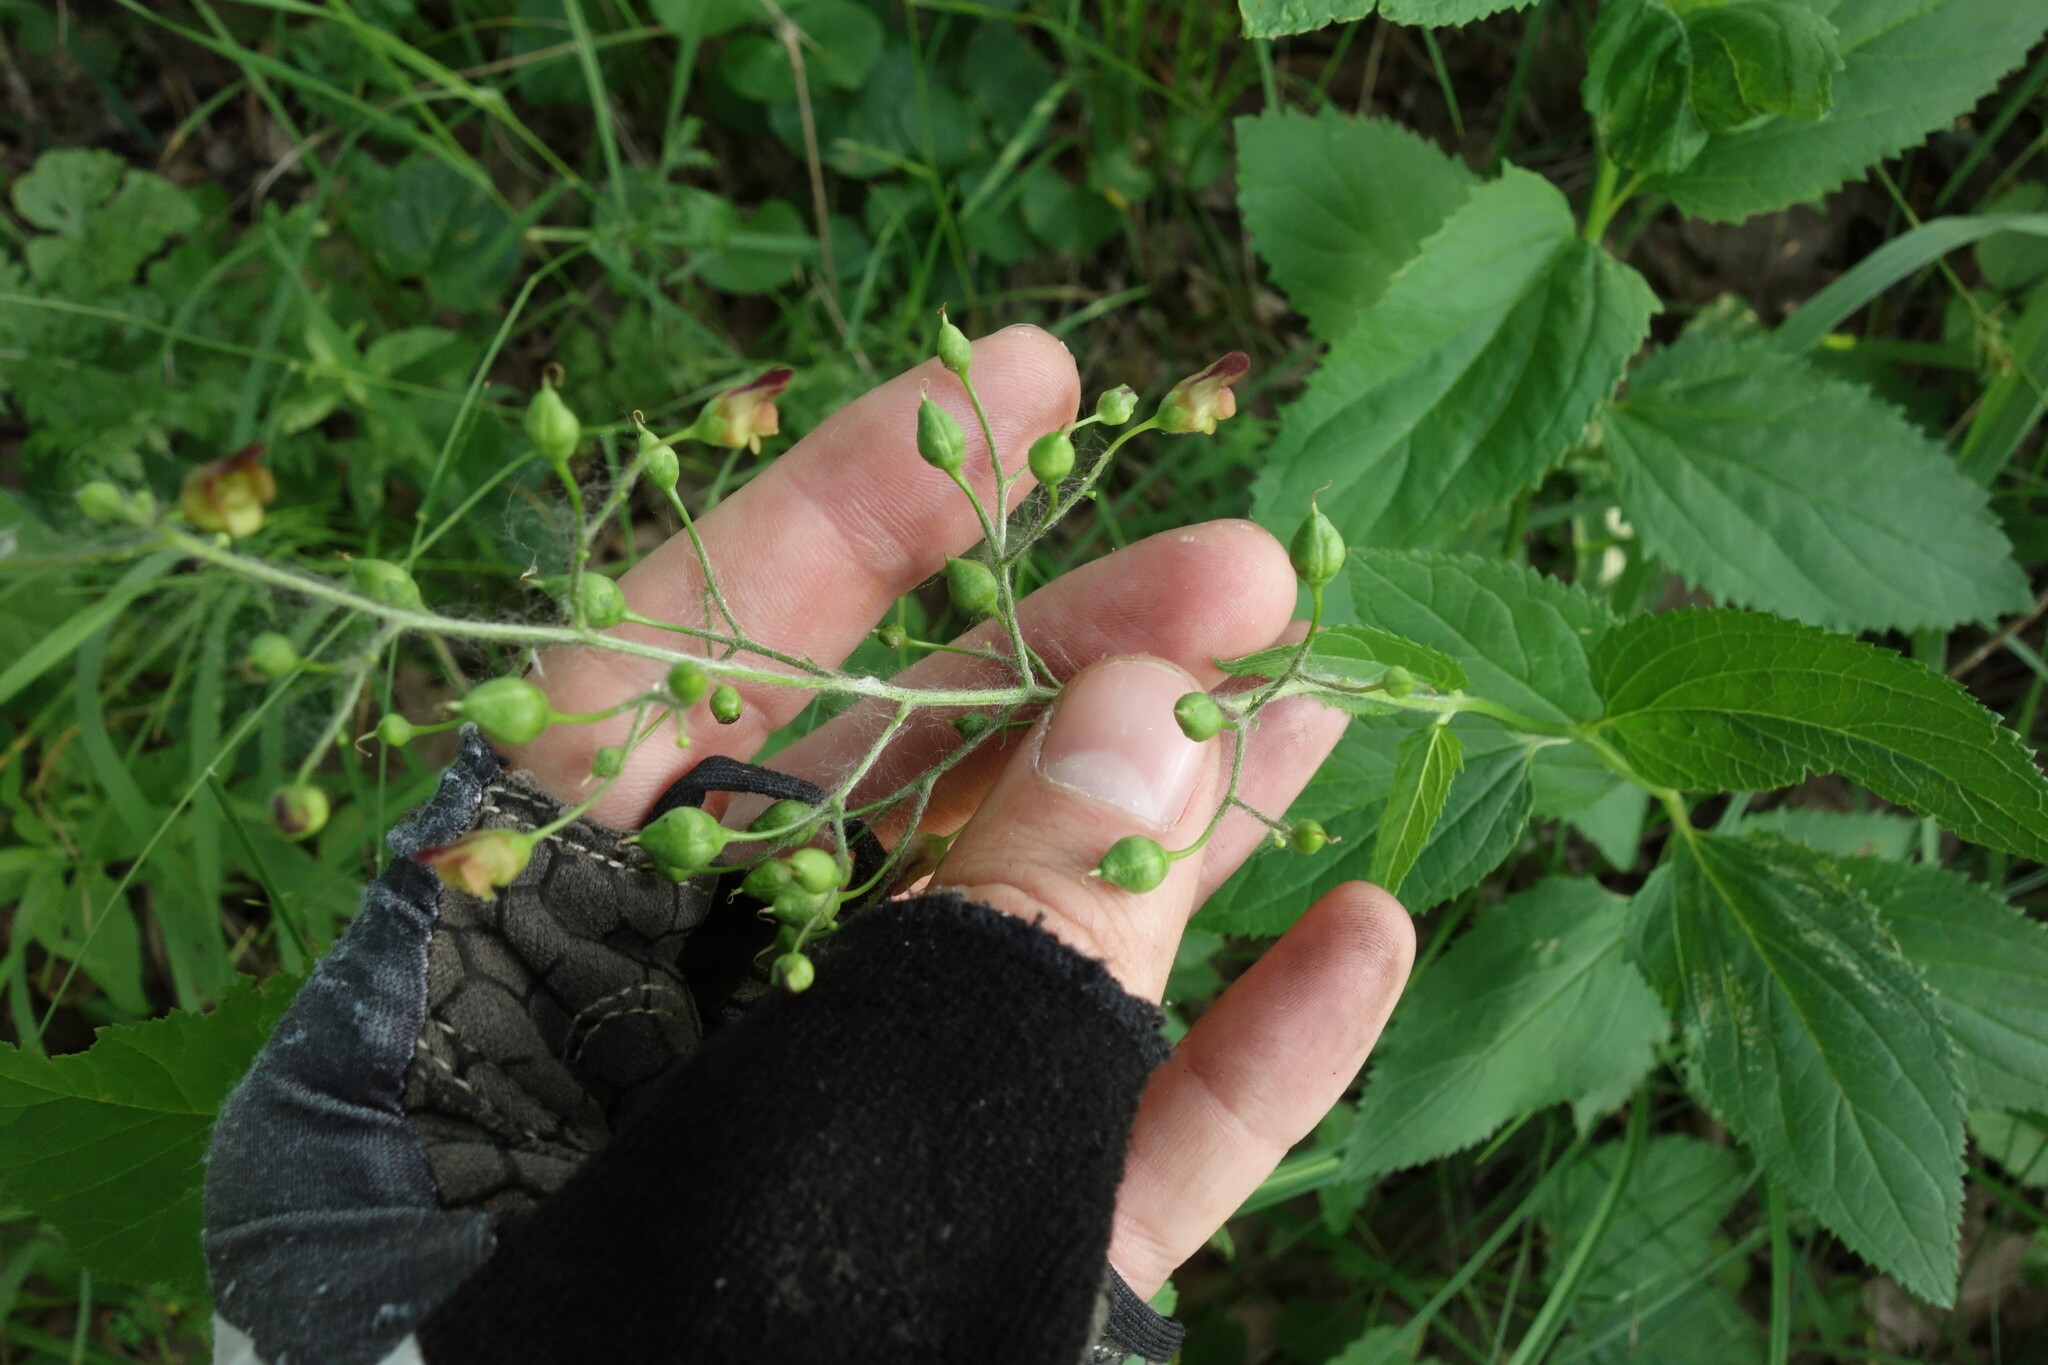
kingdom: Plantae
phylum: Tracheophyta
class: Magnoliopsida
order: Lamiales
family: Scrophulariaceae
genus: Scrophularia
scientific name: Scrophularia nodosa
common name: Common figwort
